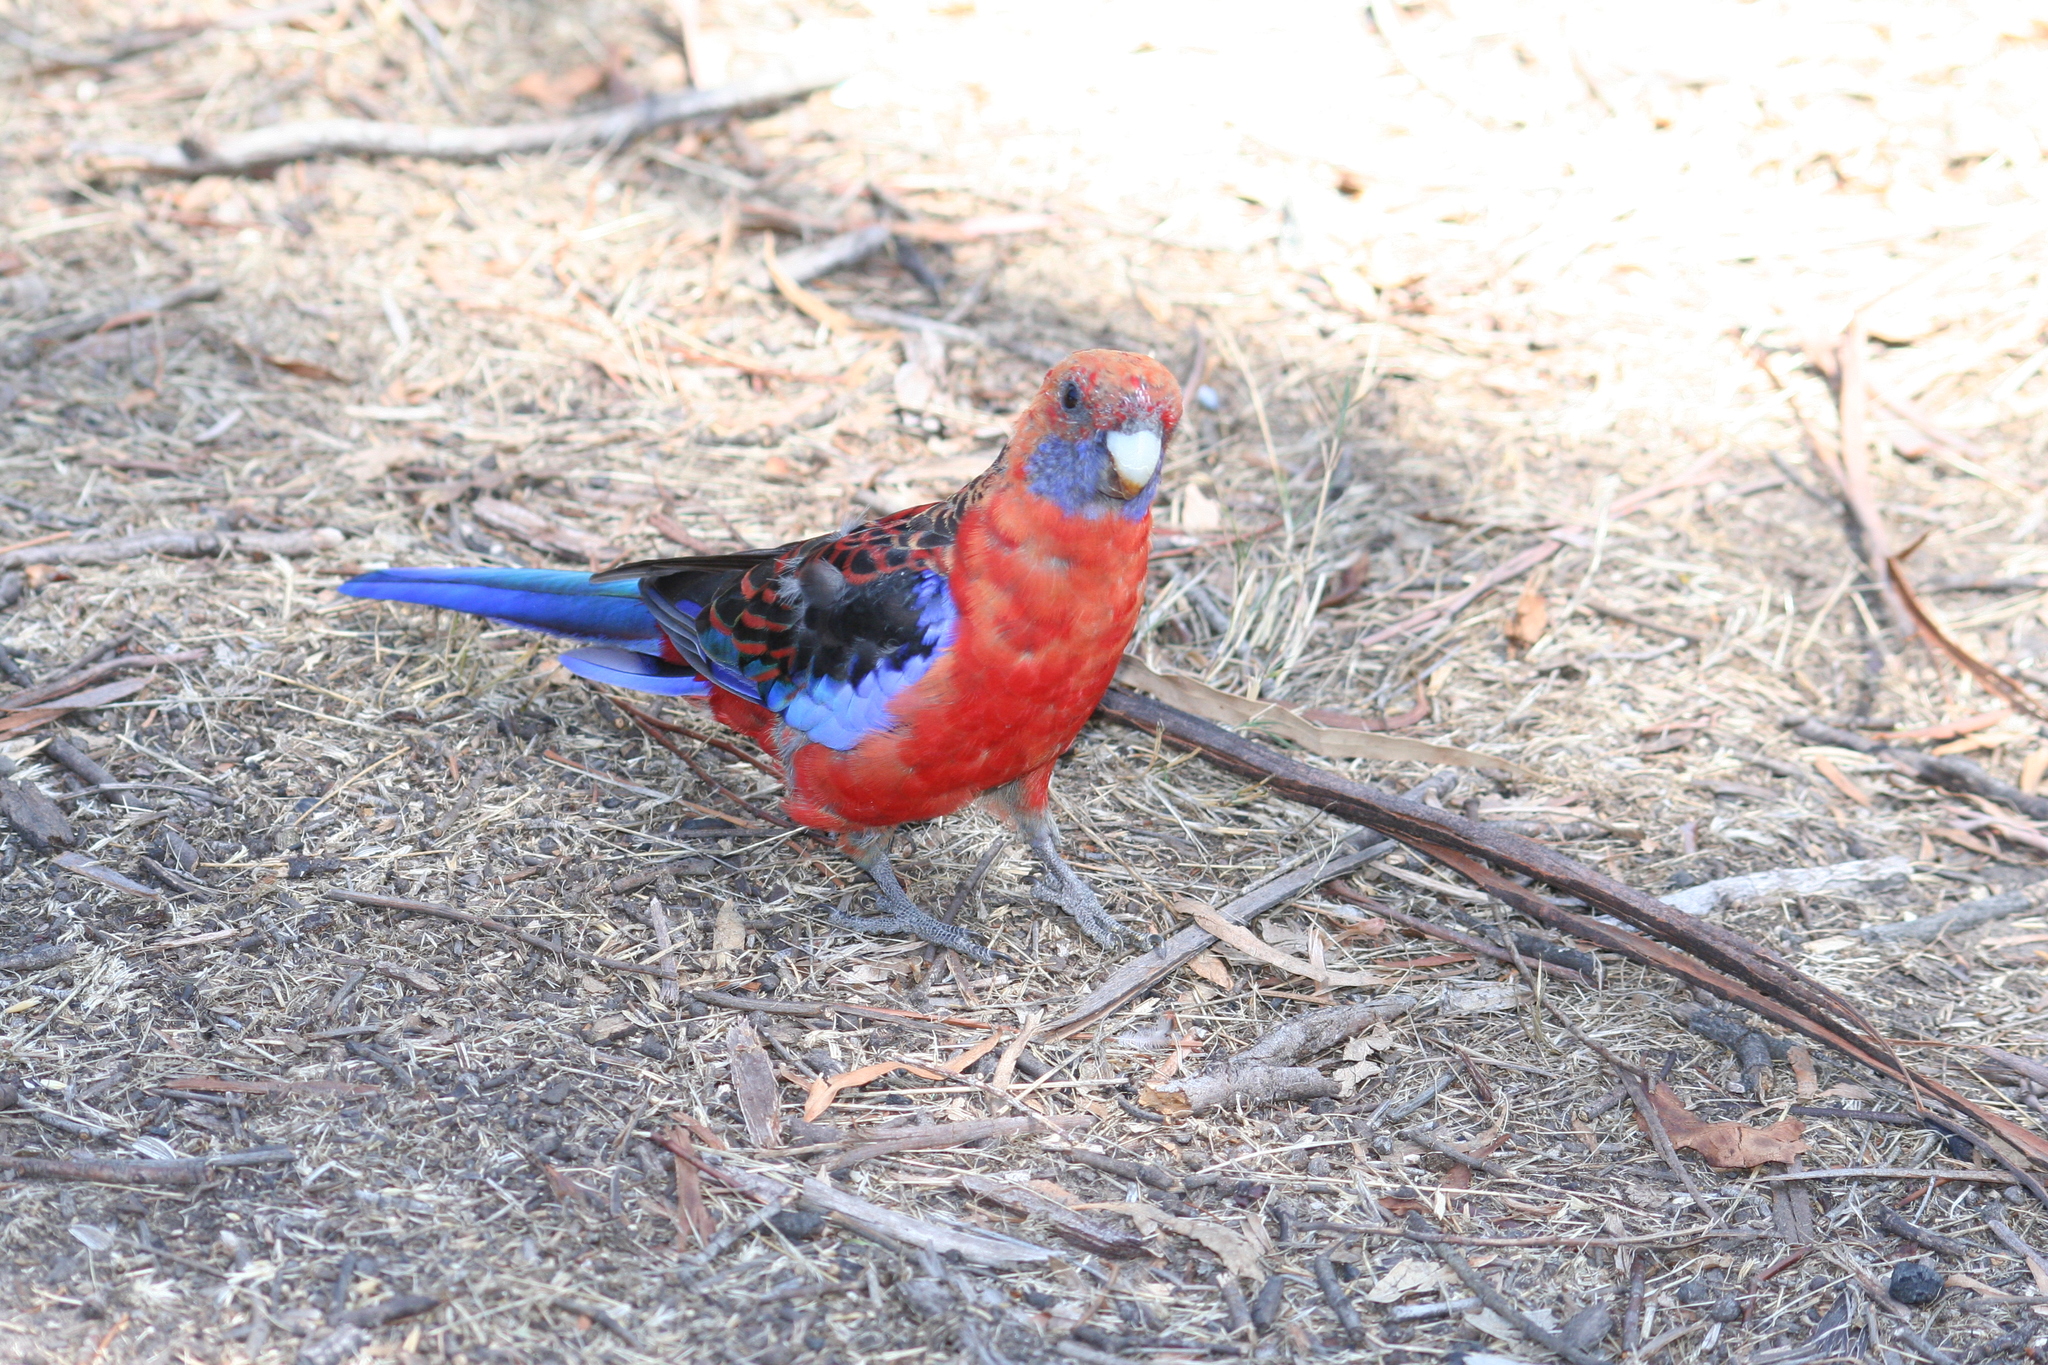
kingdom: Animalia
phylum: Chordata
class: Aves
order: Psittaciformes
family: Psittacidae
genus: Platycercus
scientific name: Platycercus elegans
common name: Crimson rosella
